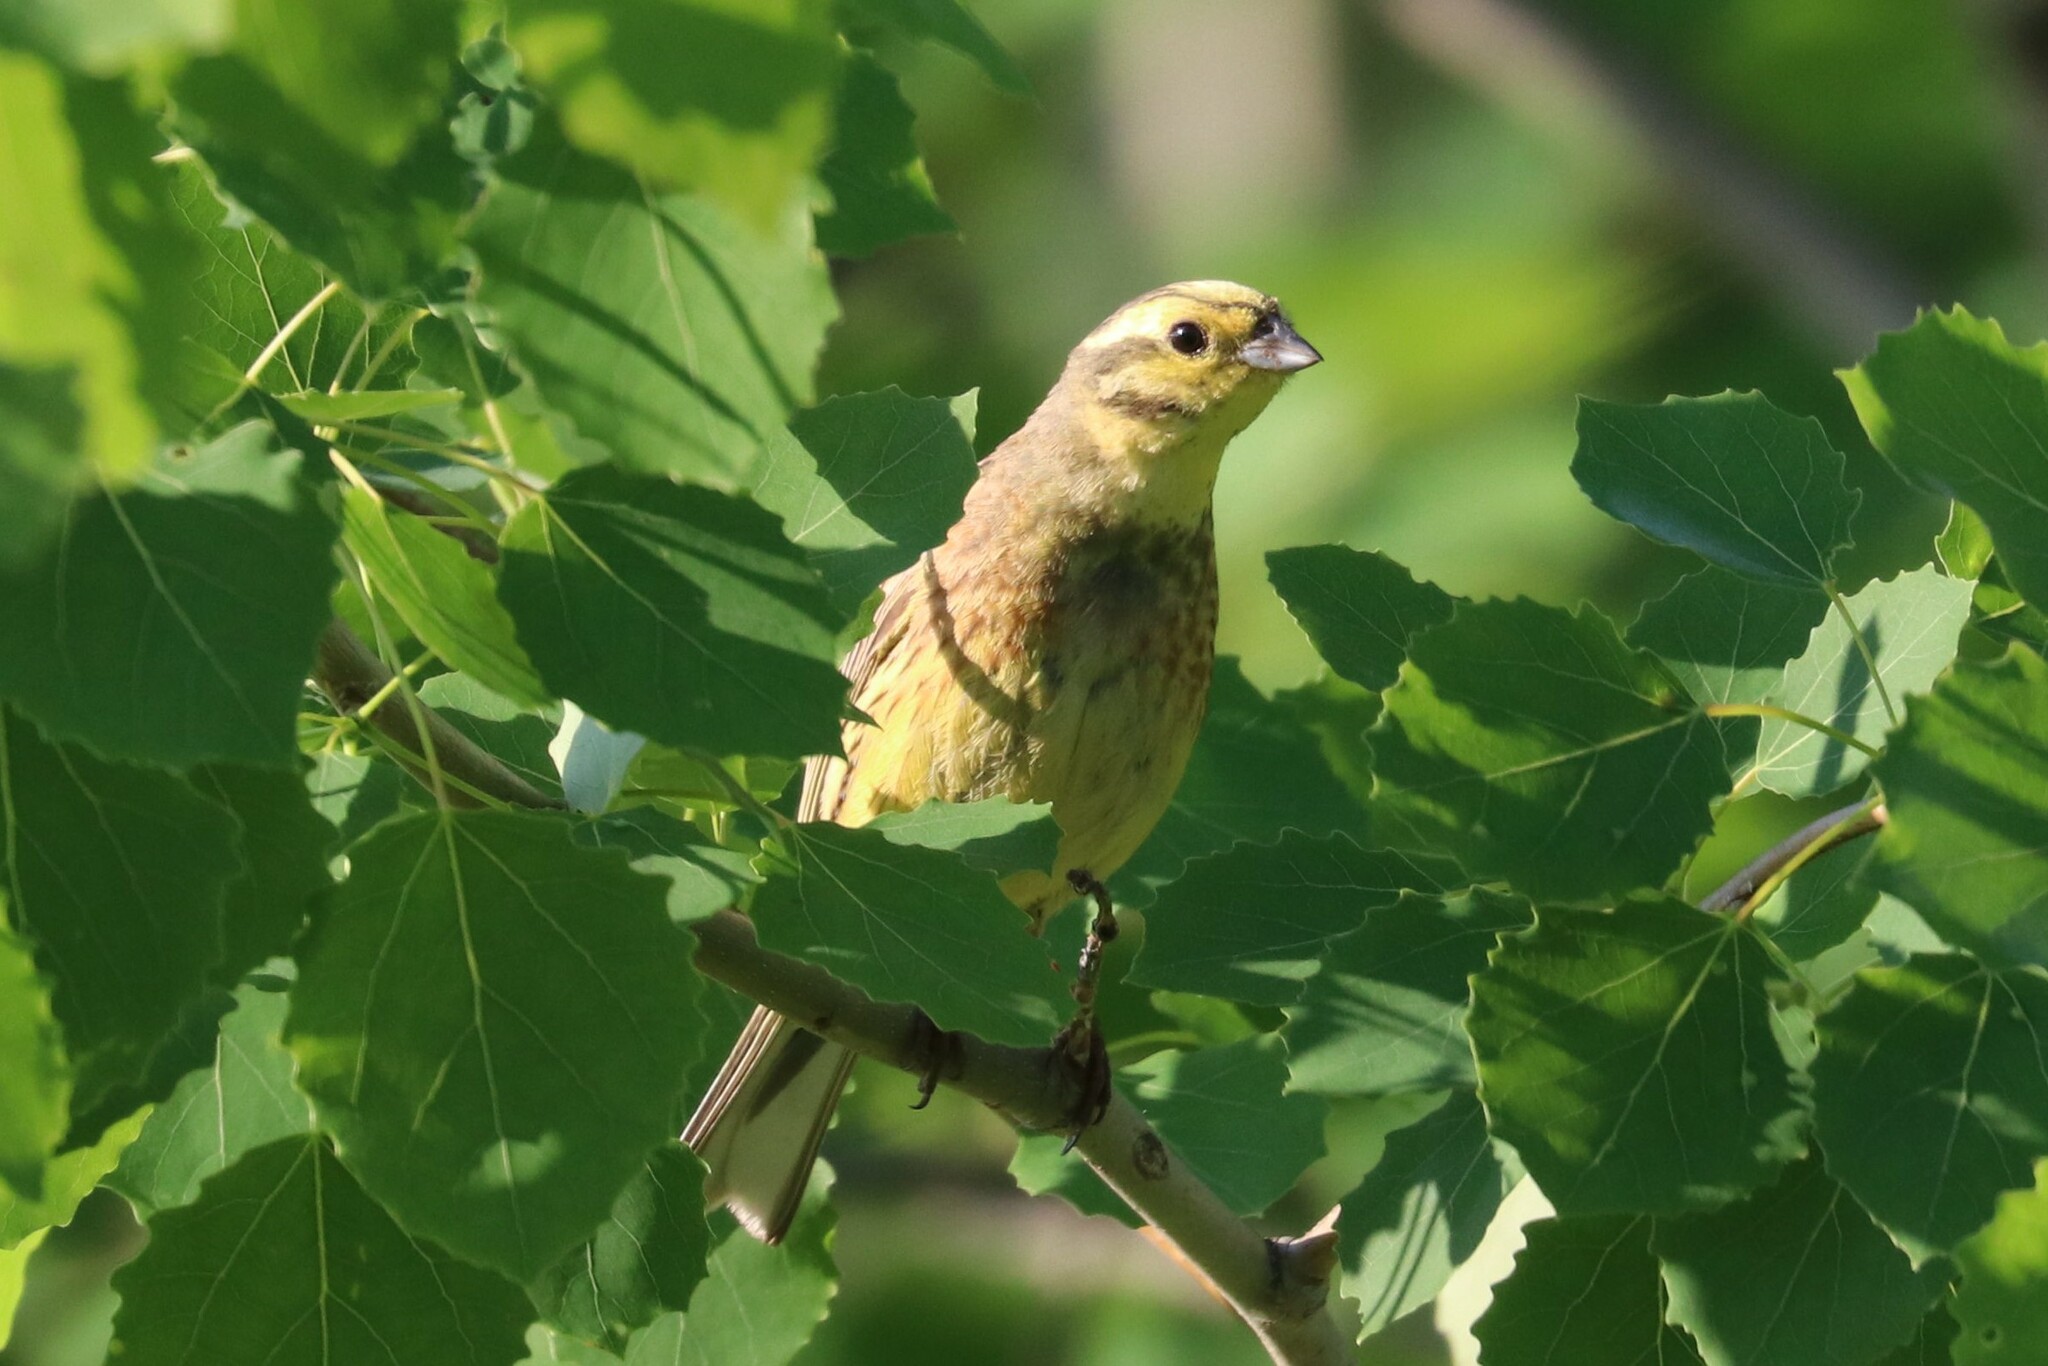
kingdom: Animalia
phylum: Chordata
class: Aves
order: Passeriformes
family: Emberizidae
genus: Emberiza
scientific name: Emberiza citrinella
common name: Yellowhammer
